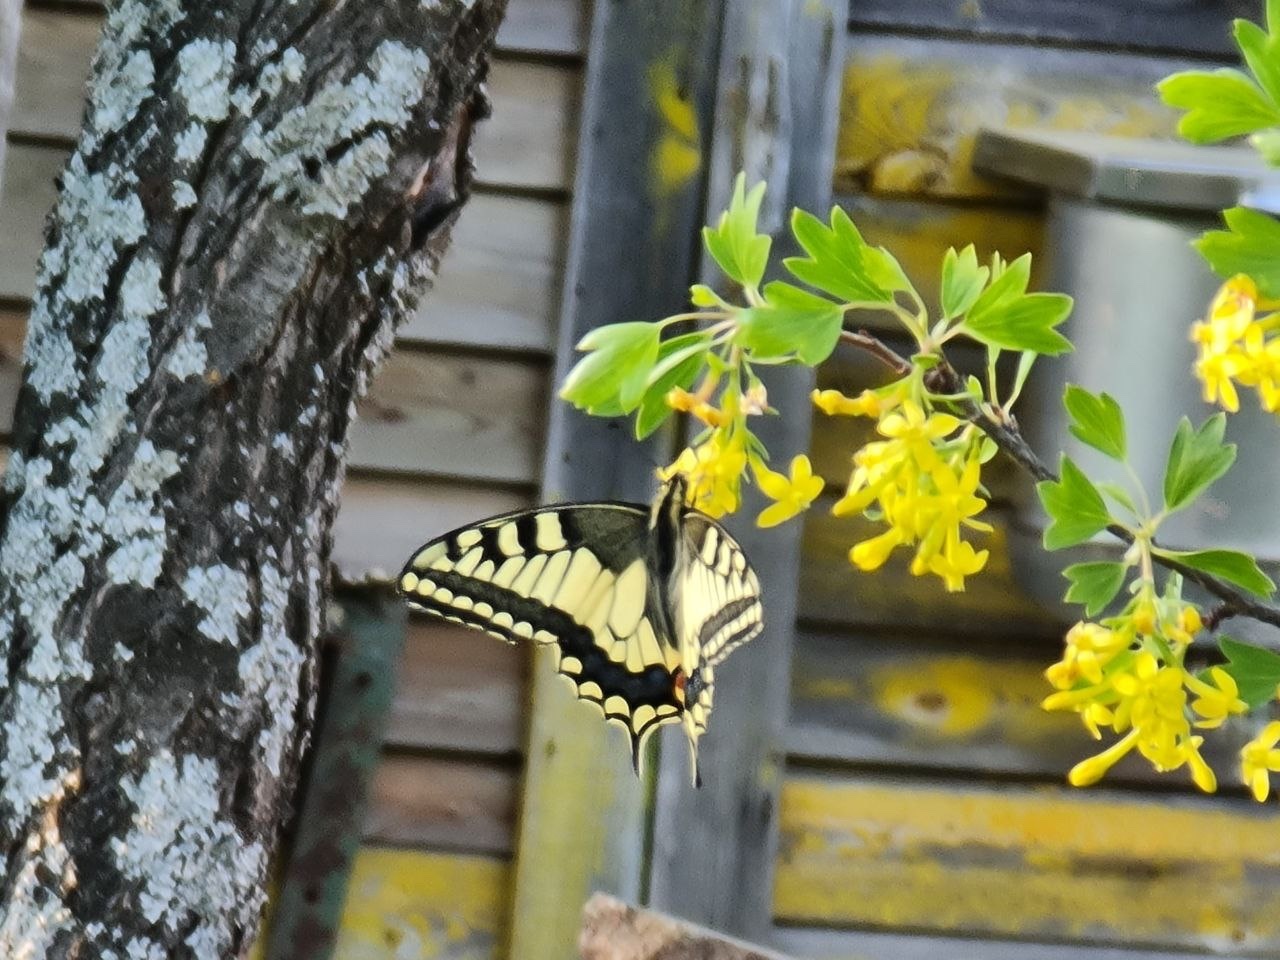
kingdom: Animalia
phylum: Arthropoda
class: Insecta
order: Lepidoptera
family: Papilionidae
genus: Papilio
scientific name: Papilio machaon
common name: Swallowtail
